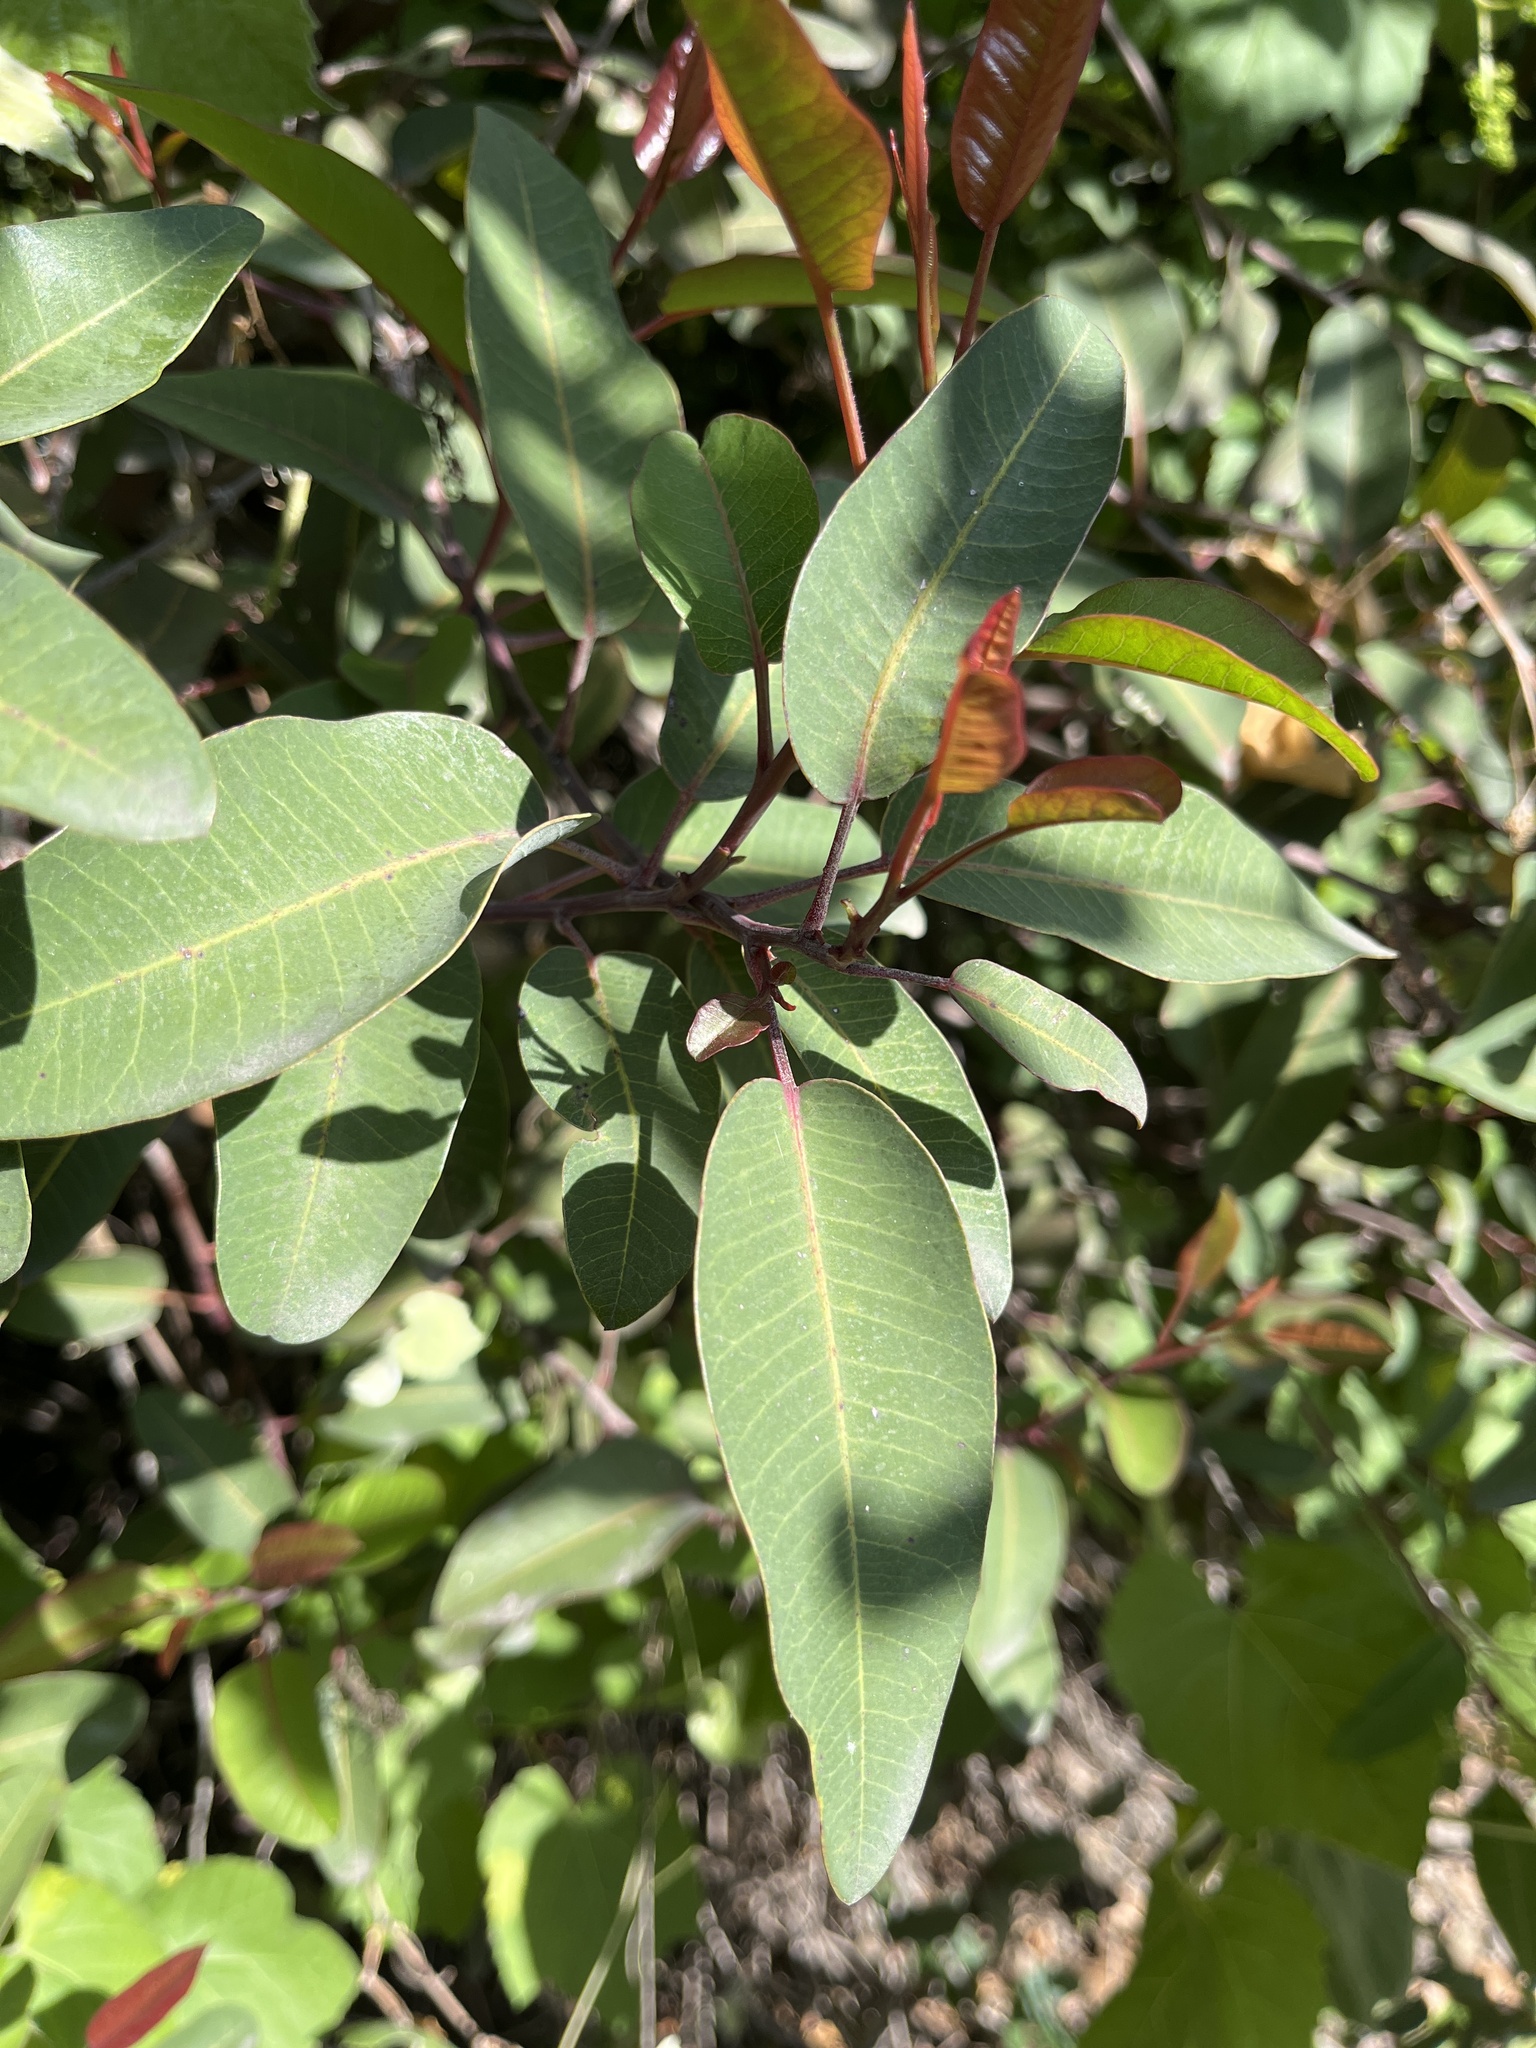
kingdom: Plantae
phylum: Tracheophyta
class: Magnoliopsida
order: Sapindales
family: Anacardiaceae
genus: Malosma
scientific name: Malosma laurina
